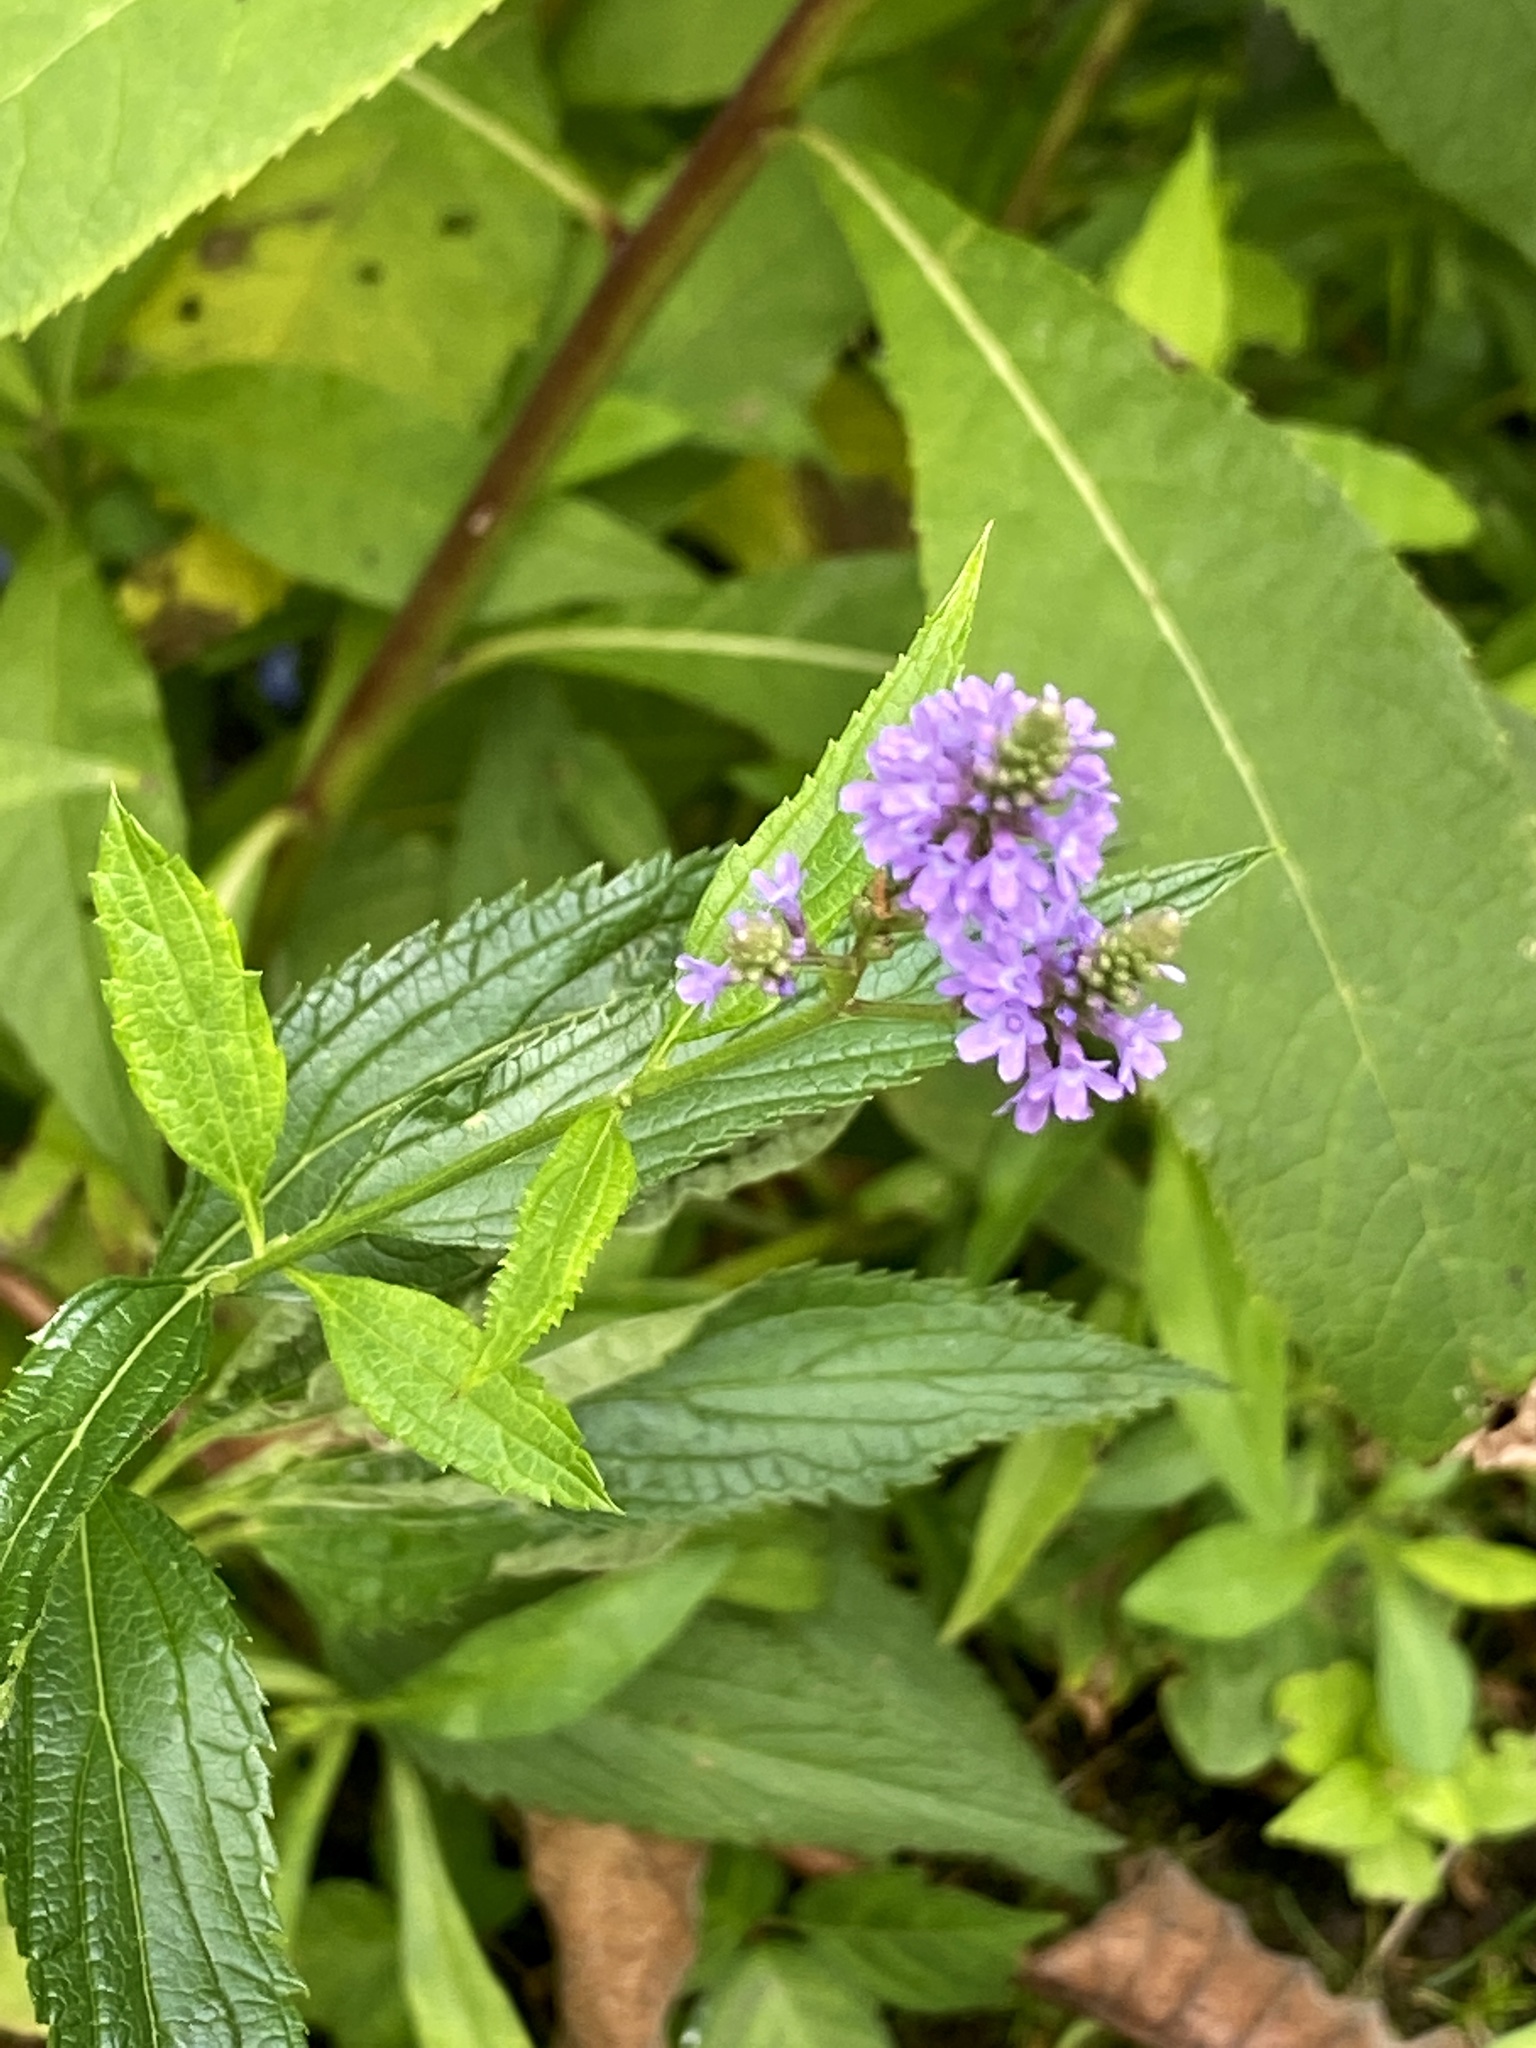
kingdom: Plantae
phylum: Tracheophyta
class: Magnoliopsida
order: Lamiales
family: Verbenaceae
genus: Verbena
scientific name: Verbena hastata
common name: American blue vervain
